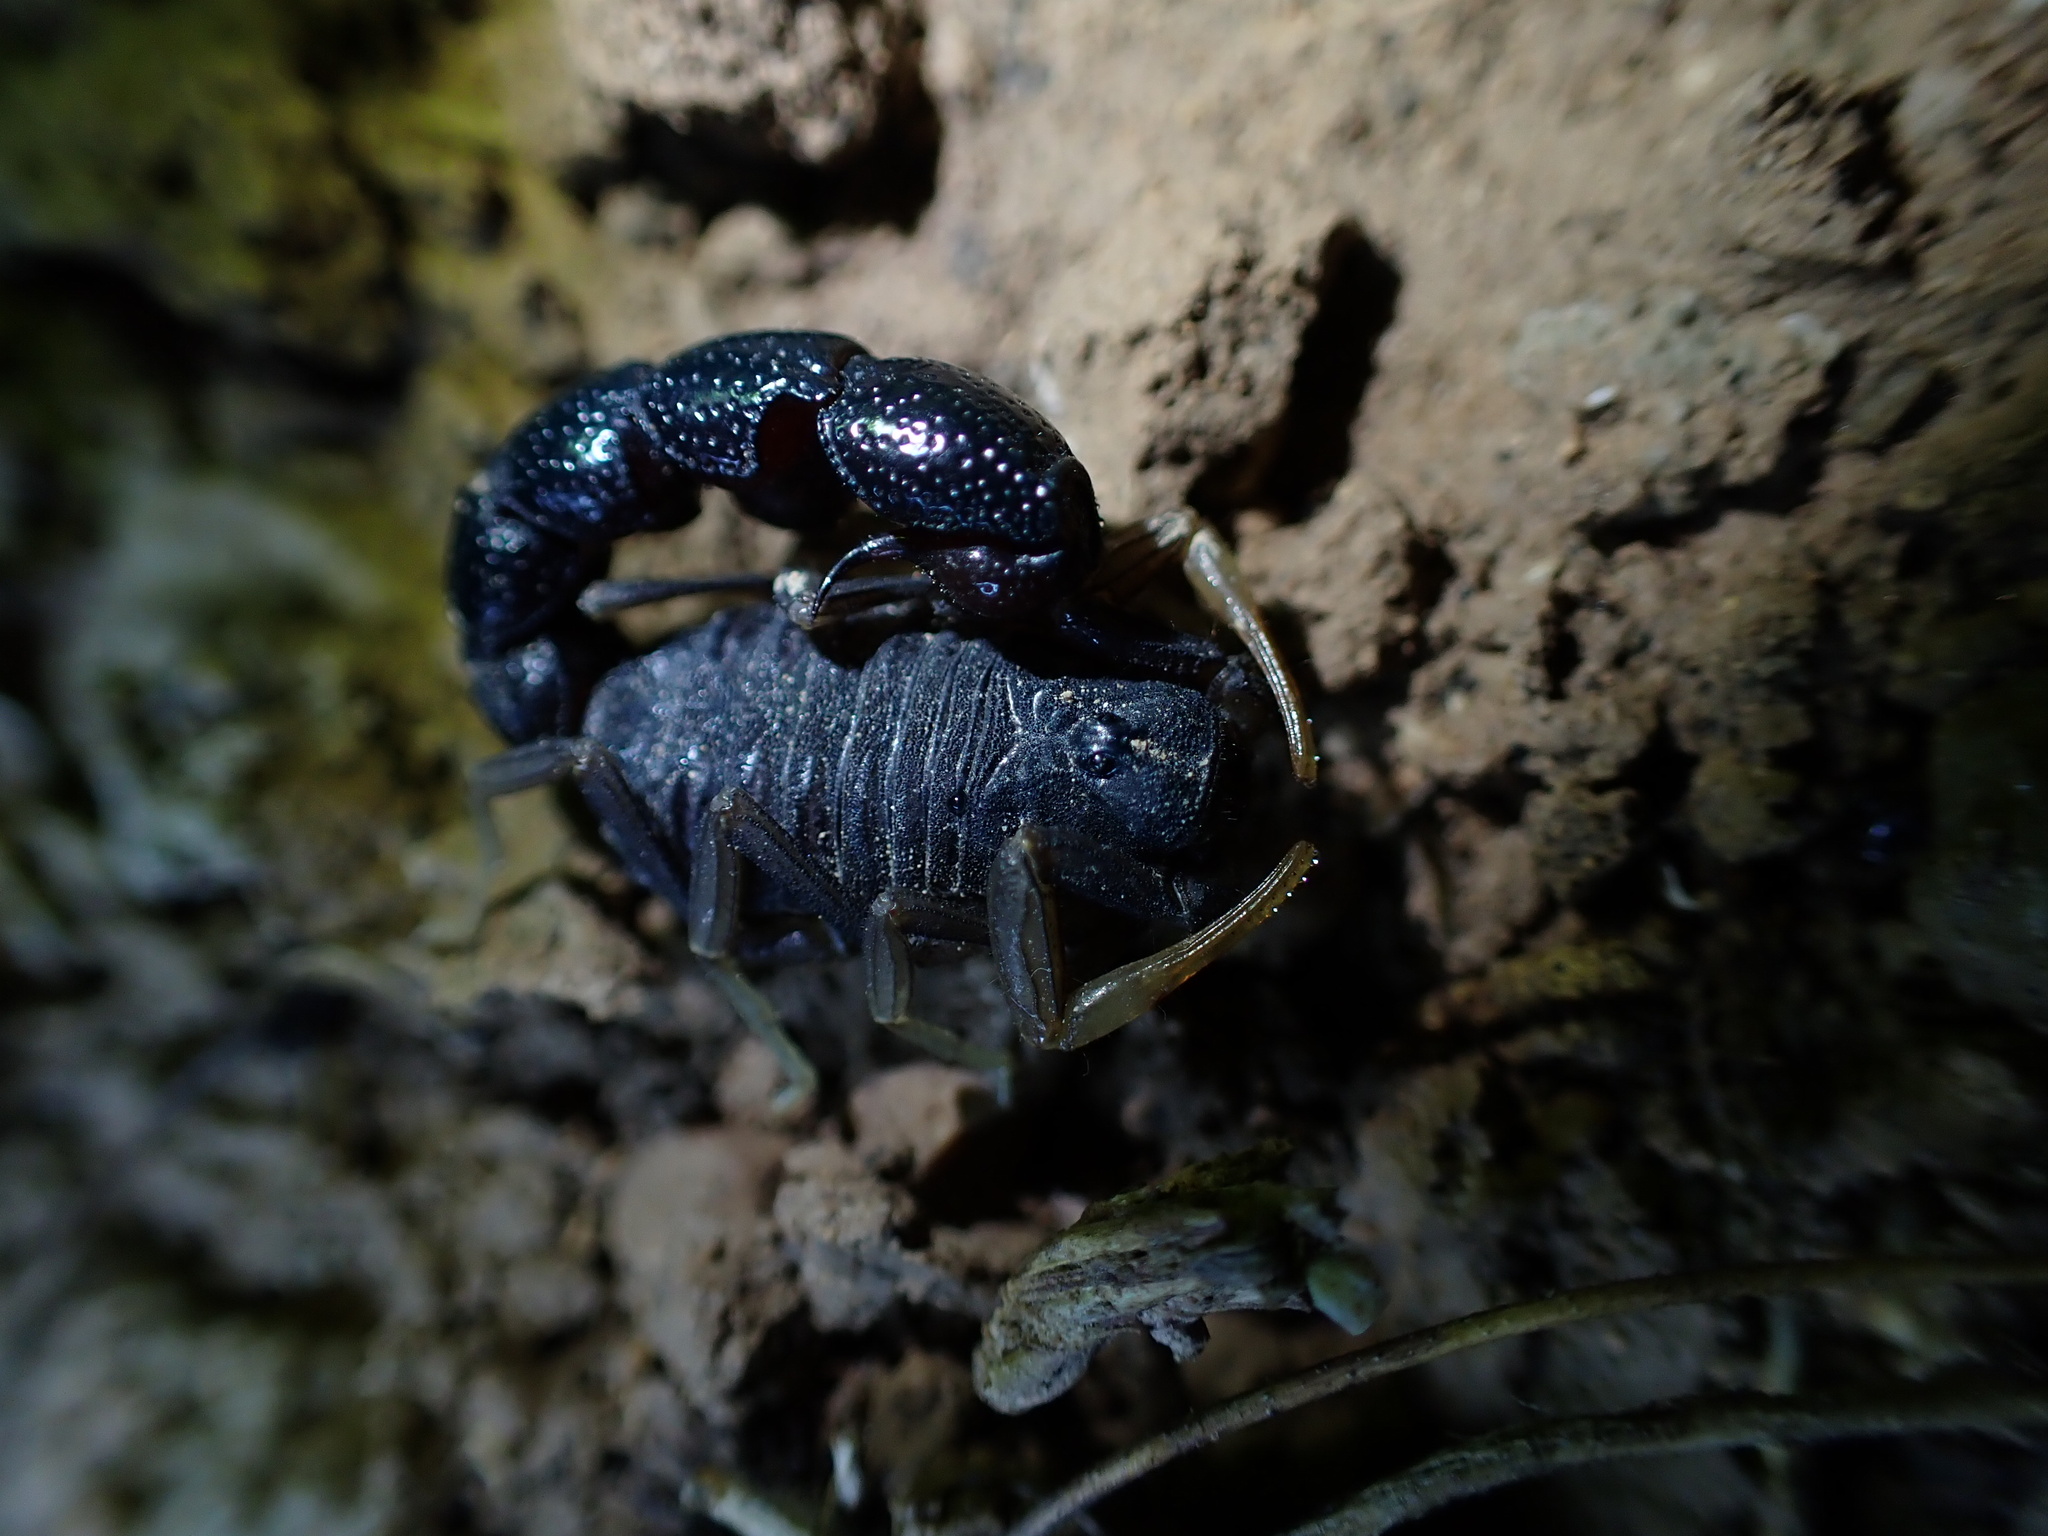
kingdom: Animalia
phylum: Arthropoda
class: Arachnida
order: Scorpiones
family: Buthidae
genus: Orthochirus
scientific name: Orthochirus farzanpayi
